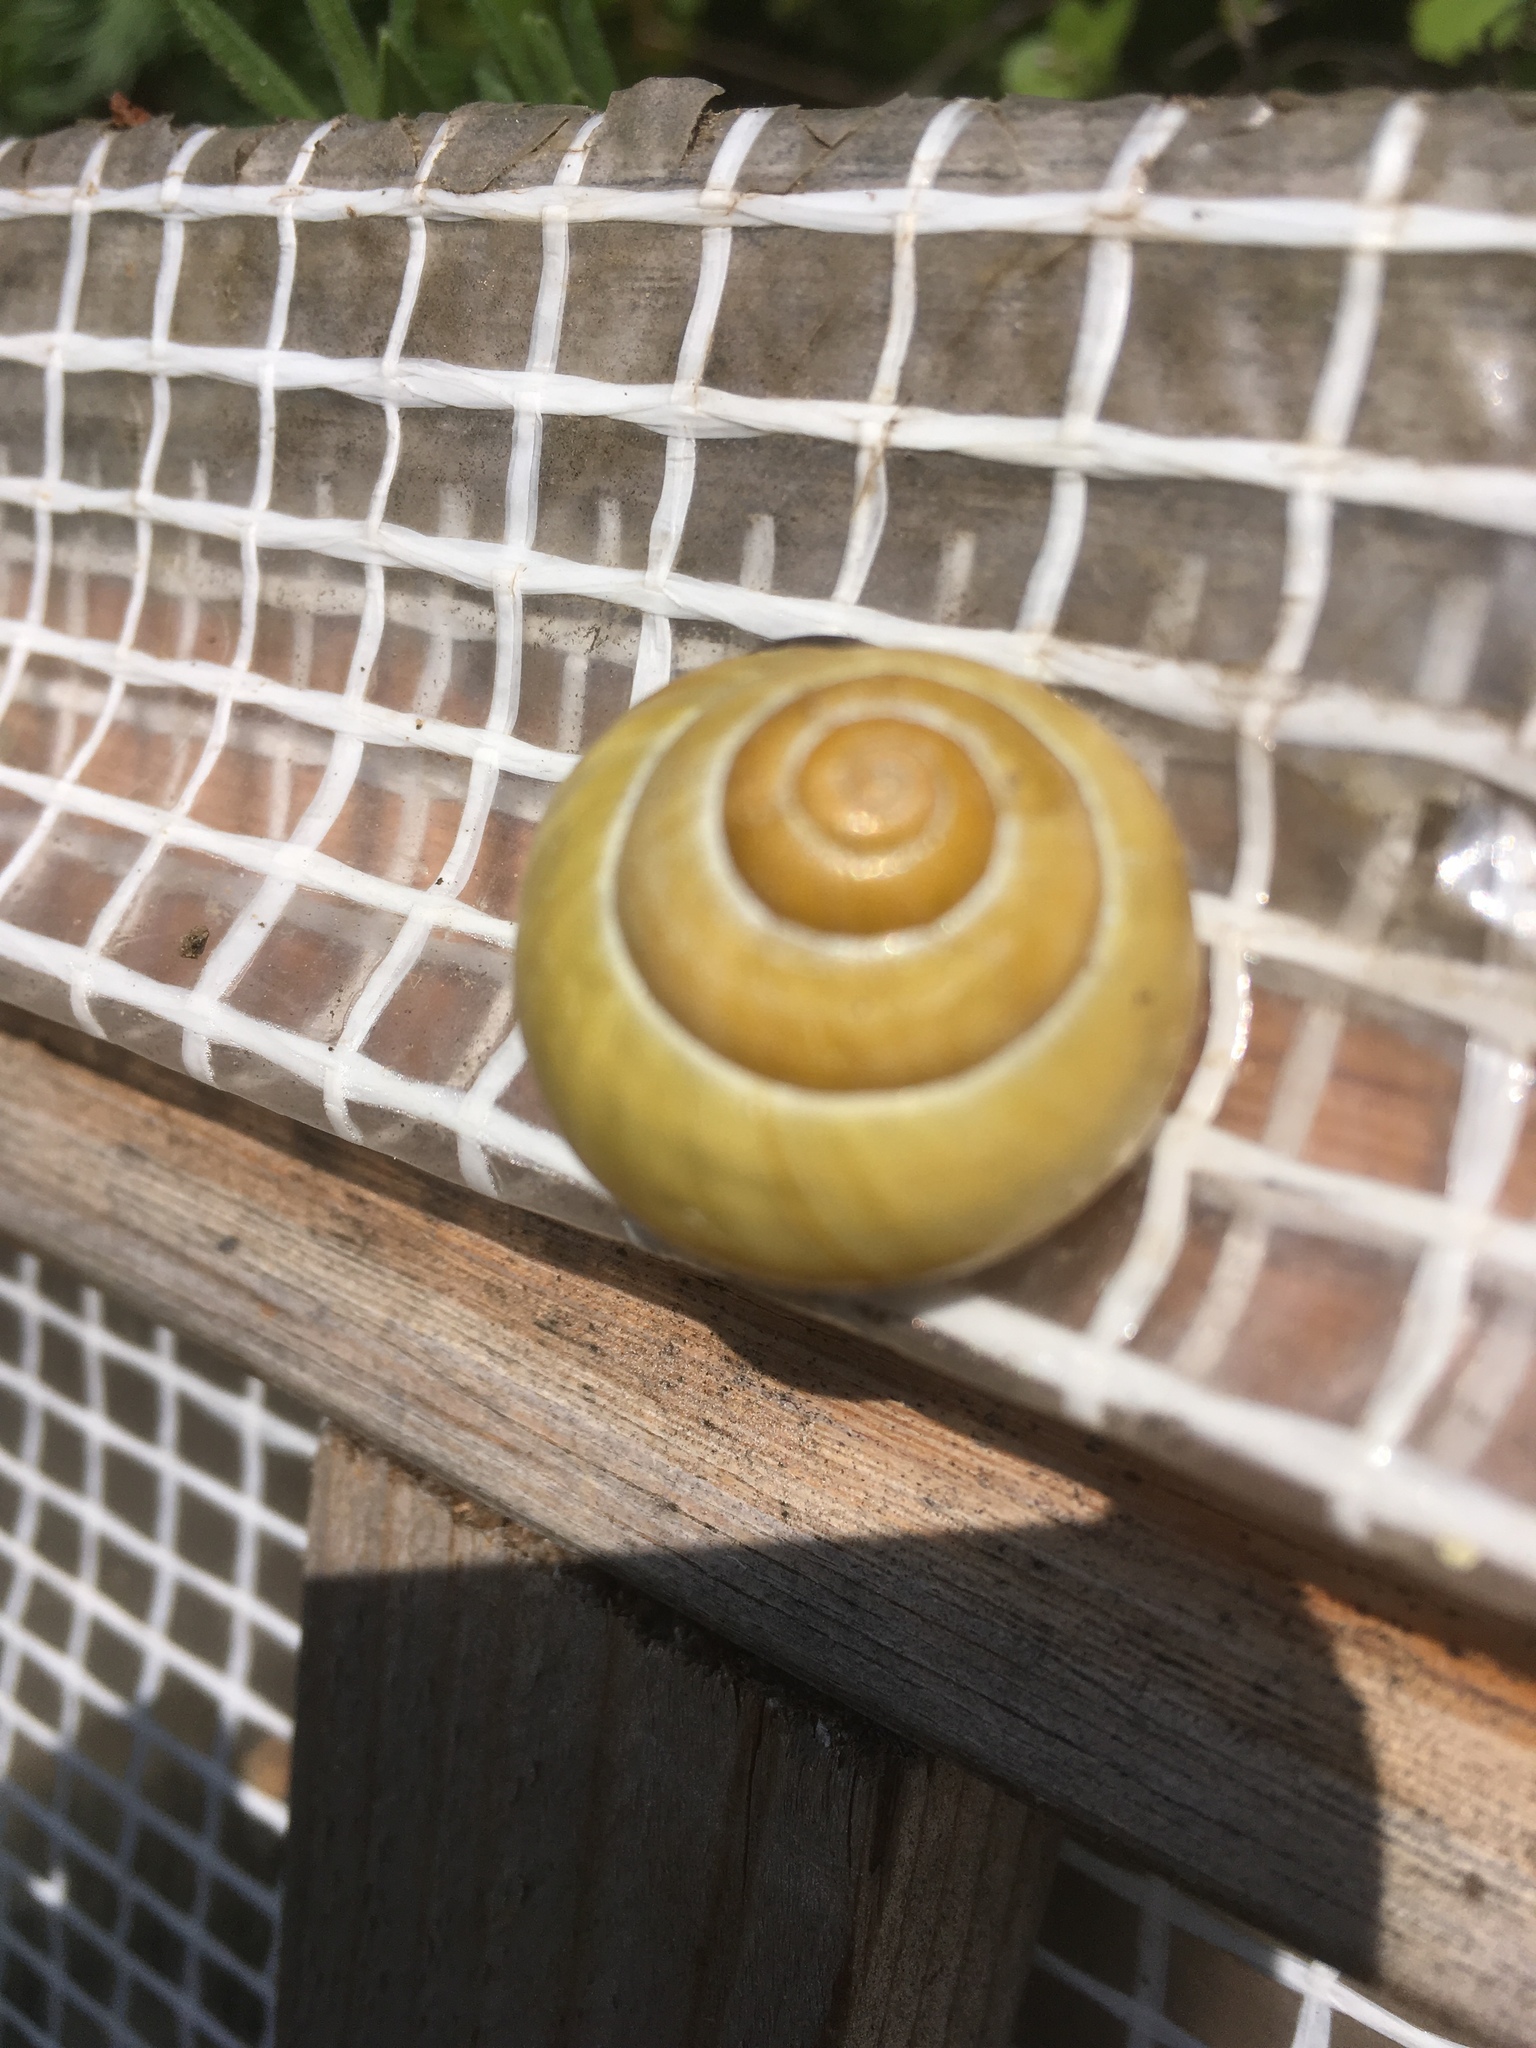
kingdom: Animalia
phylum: Mollusca
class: Gastropoda
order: Stylommatophora
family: Helicidae
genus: Cepaea
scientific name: Cepaea nemoralis
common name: Grovesnail
